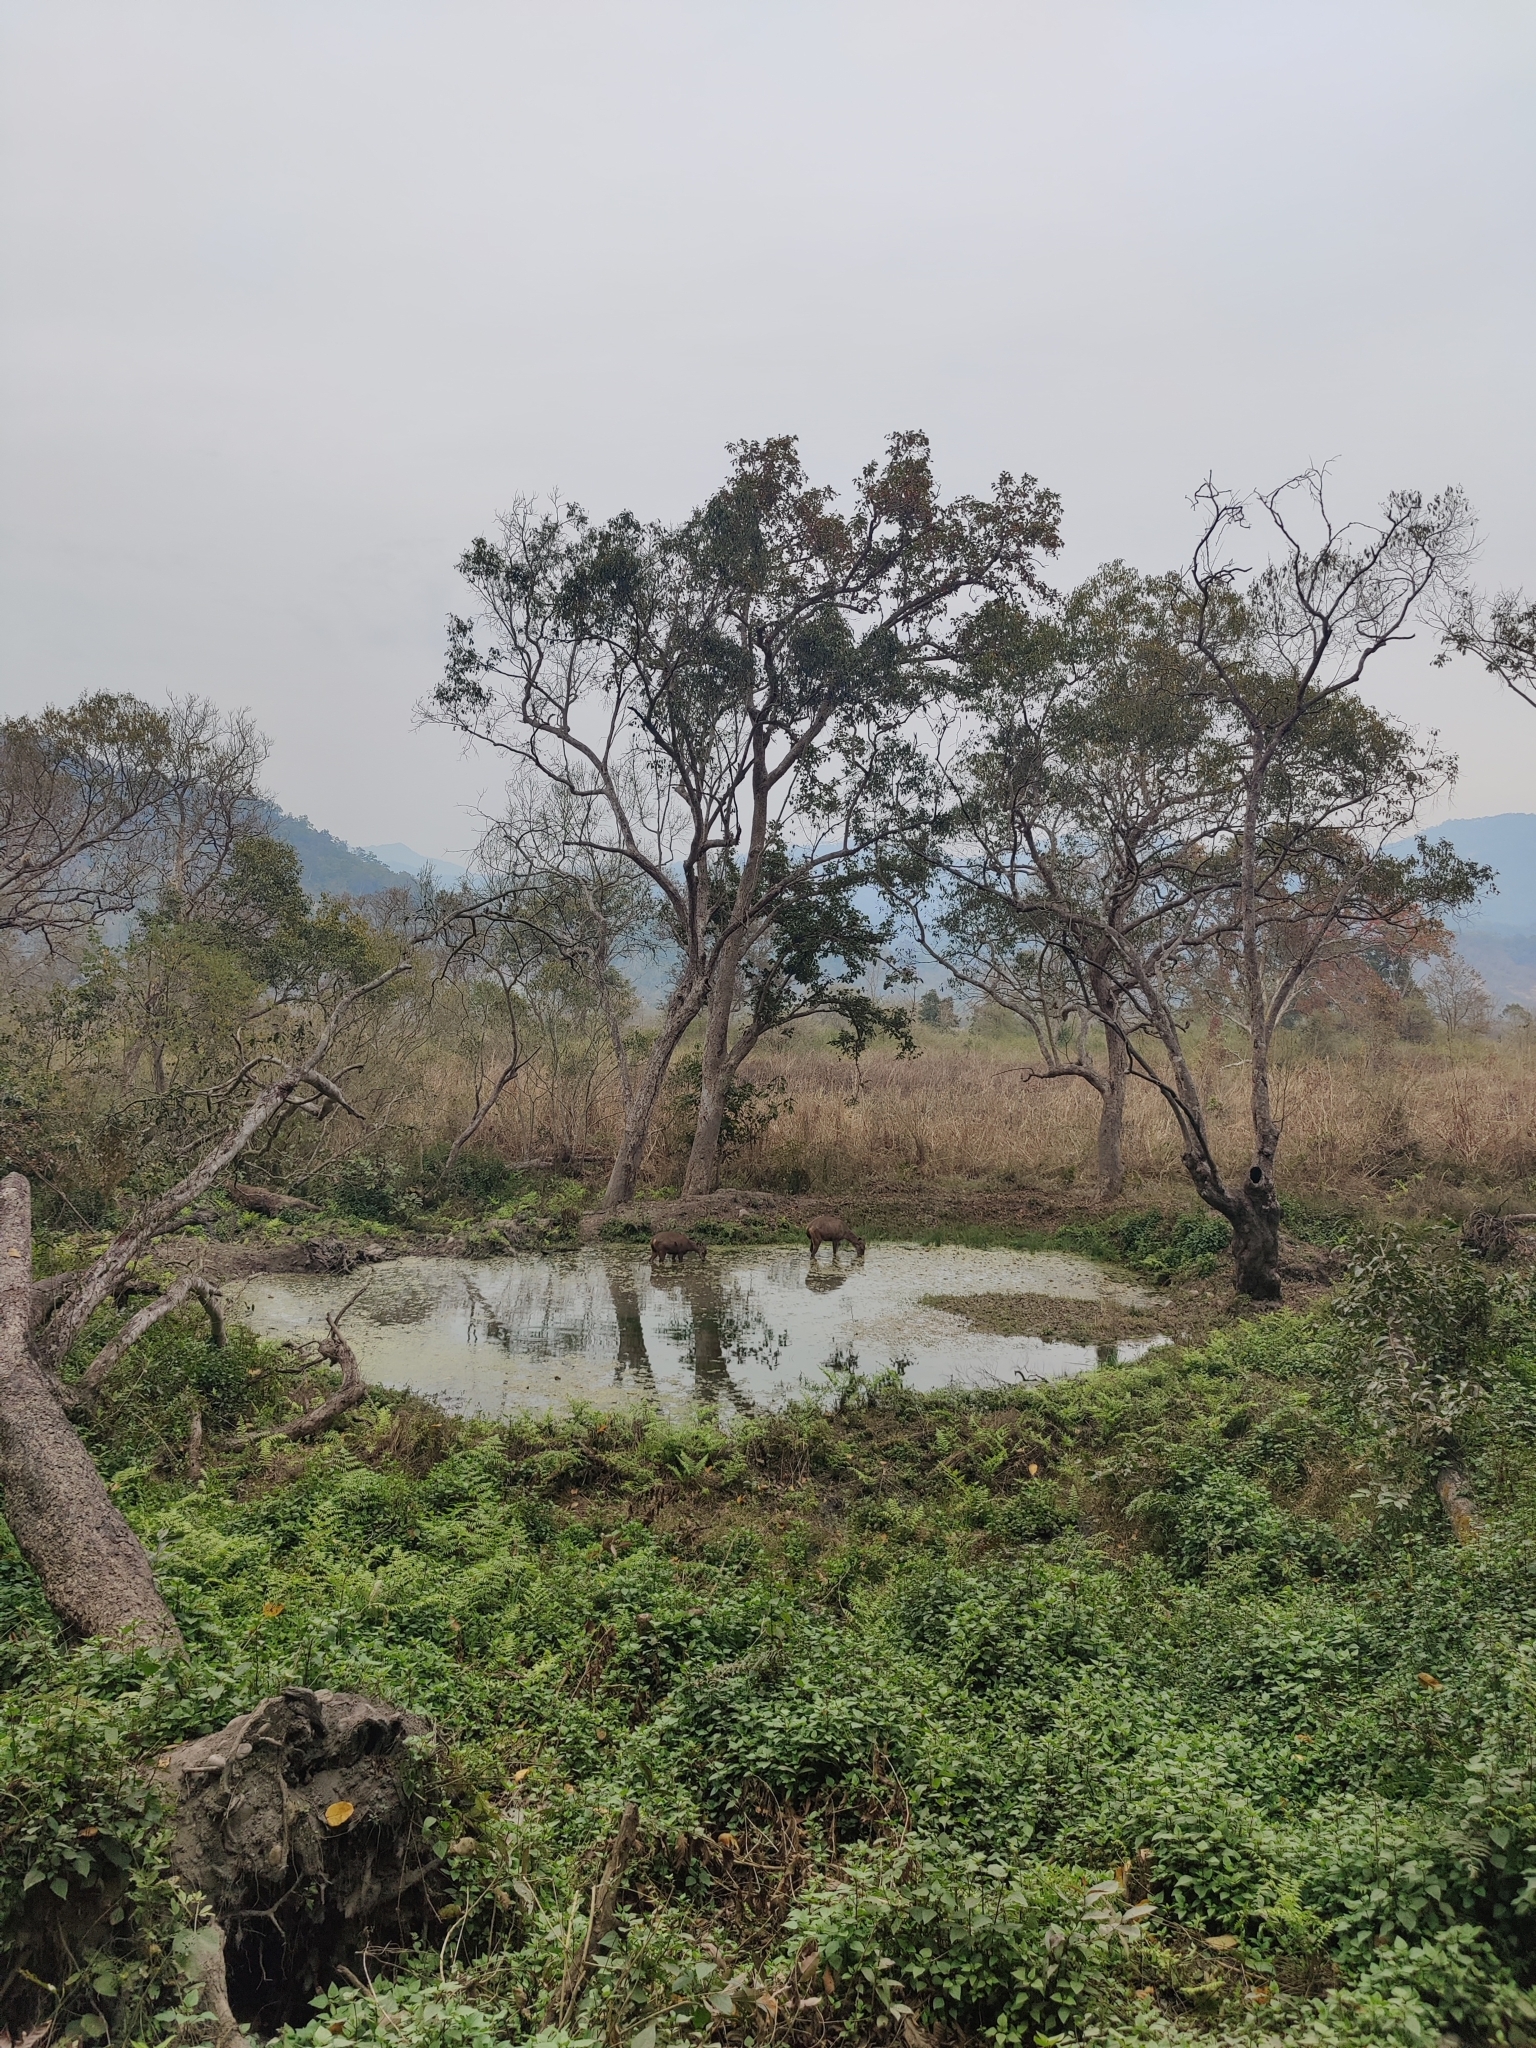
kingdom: Animalia
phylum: Chordata
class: Mammalia
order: Artiodactyla
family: Cervidae
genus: Rusa
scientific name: Rusa unicolor
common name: Sambar
